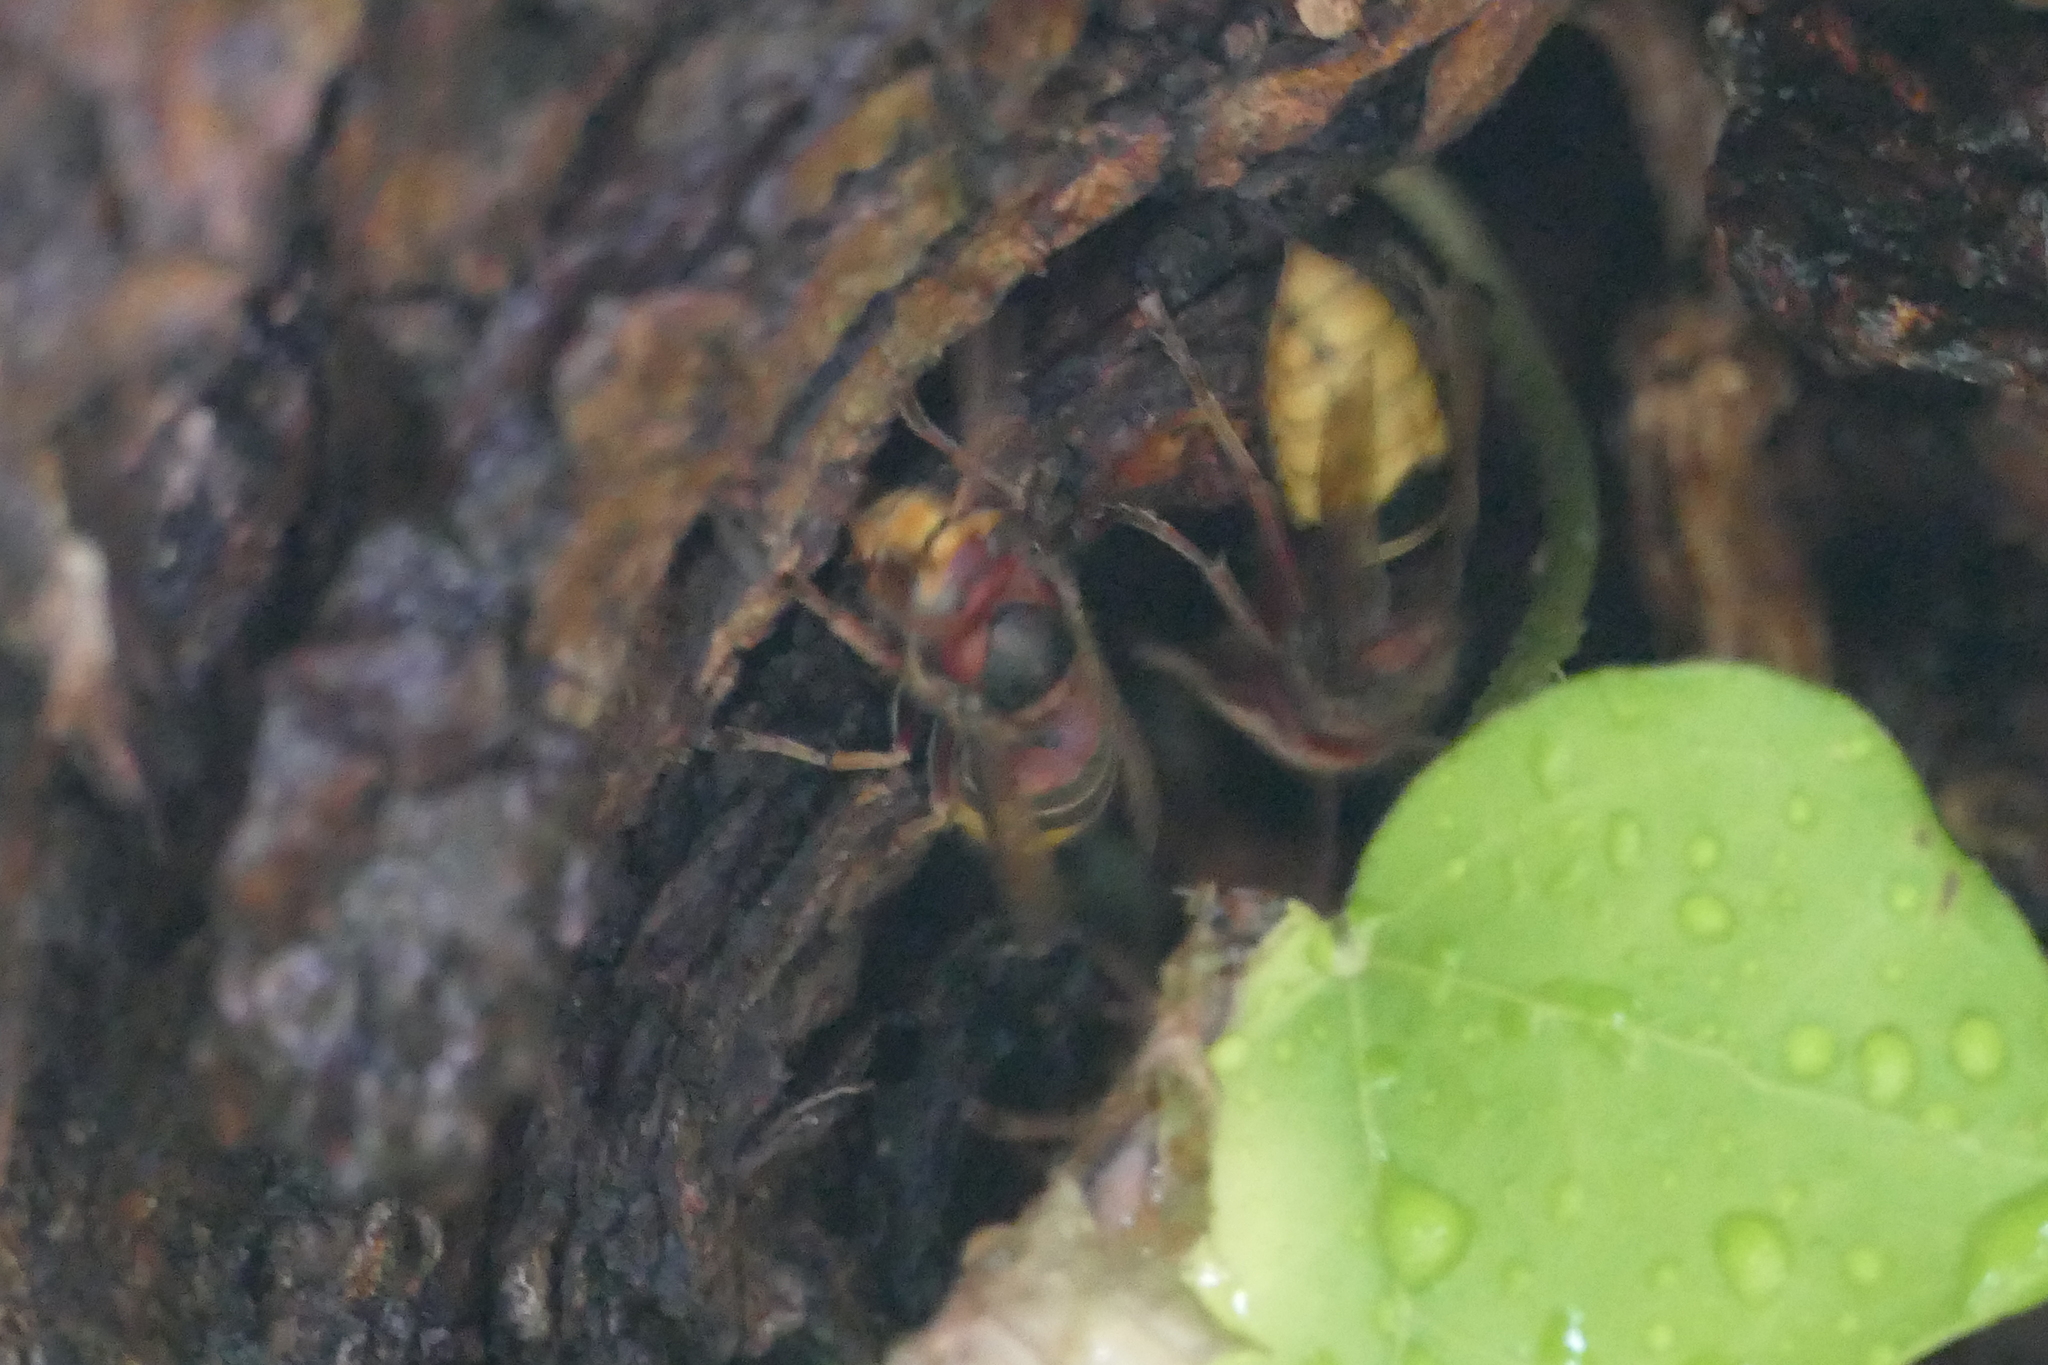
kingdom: Animalia
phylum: Arthropoda
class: Insecta
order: Hymenoptera
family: Vespidae
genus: Vespa
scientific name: Vespa crabro
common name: Hornet
